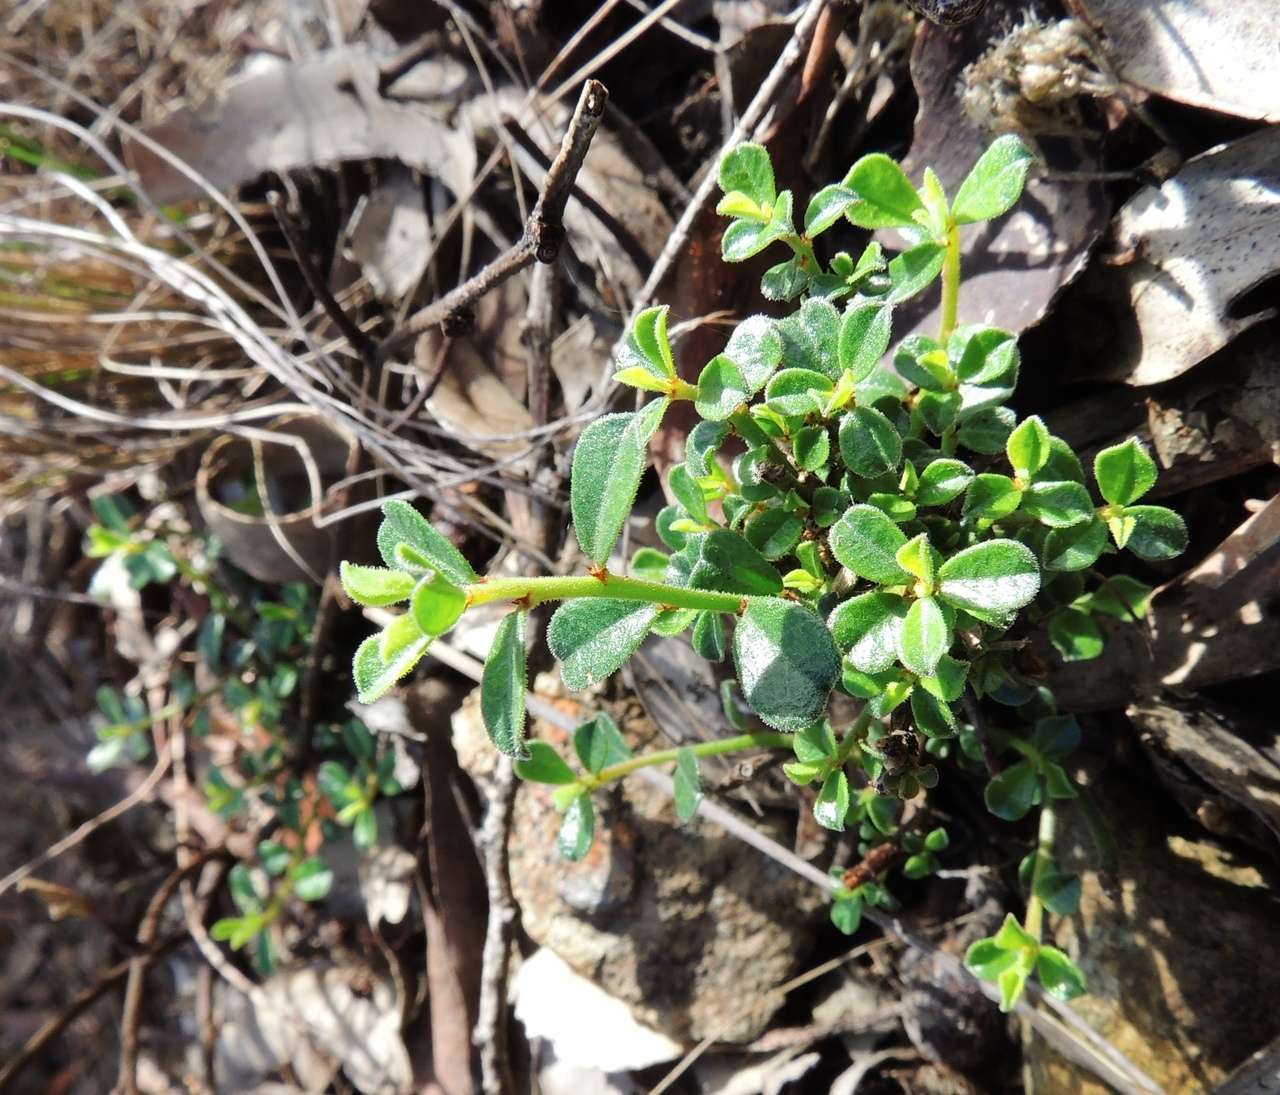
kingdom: Plantae
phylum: Tracheophyta
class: Magnoliopsida
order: Malpighiales
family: Phyllanthaceae
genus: Phyllanthus
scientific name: Phyllanthus hirtellus
